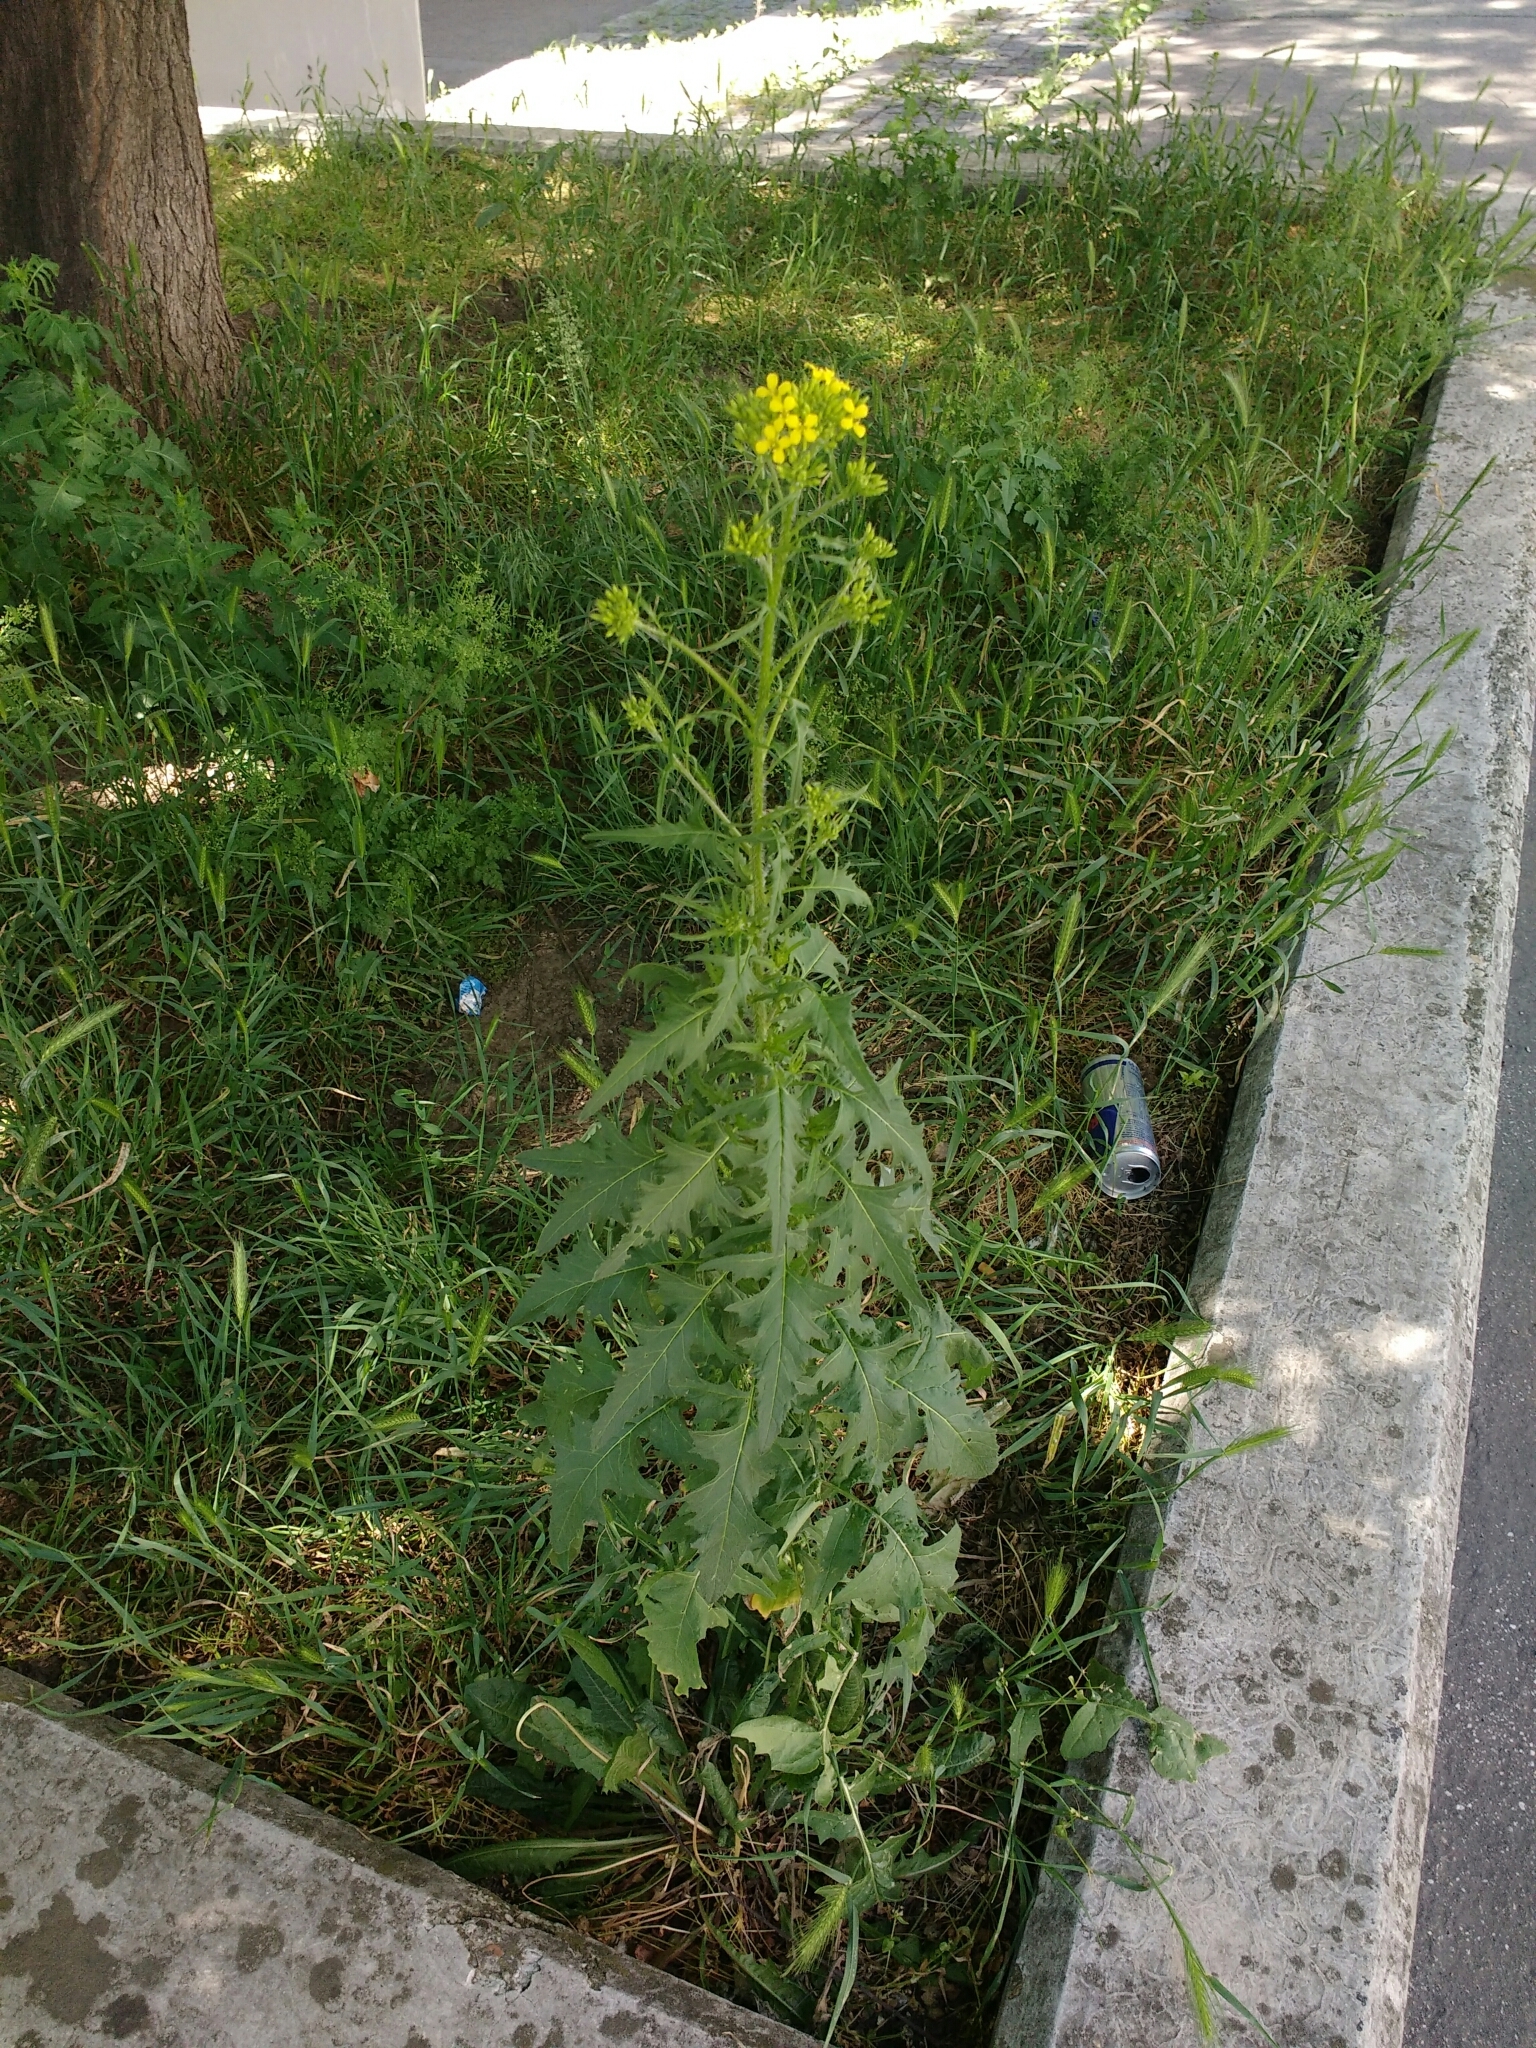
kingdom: Plantae
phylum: Tracheophyta
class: Magnoliopsida
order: Brassicales
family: Brassicaceae
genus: Sisymbrium
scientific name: Sisymbrium loeselii
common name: False london-rocket
